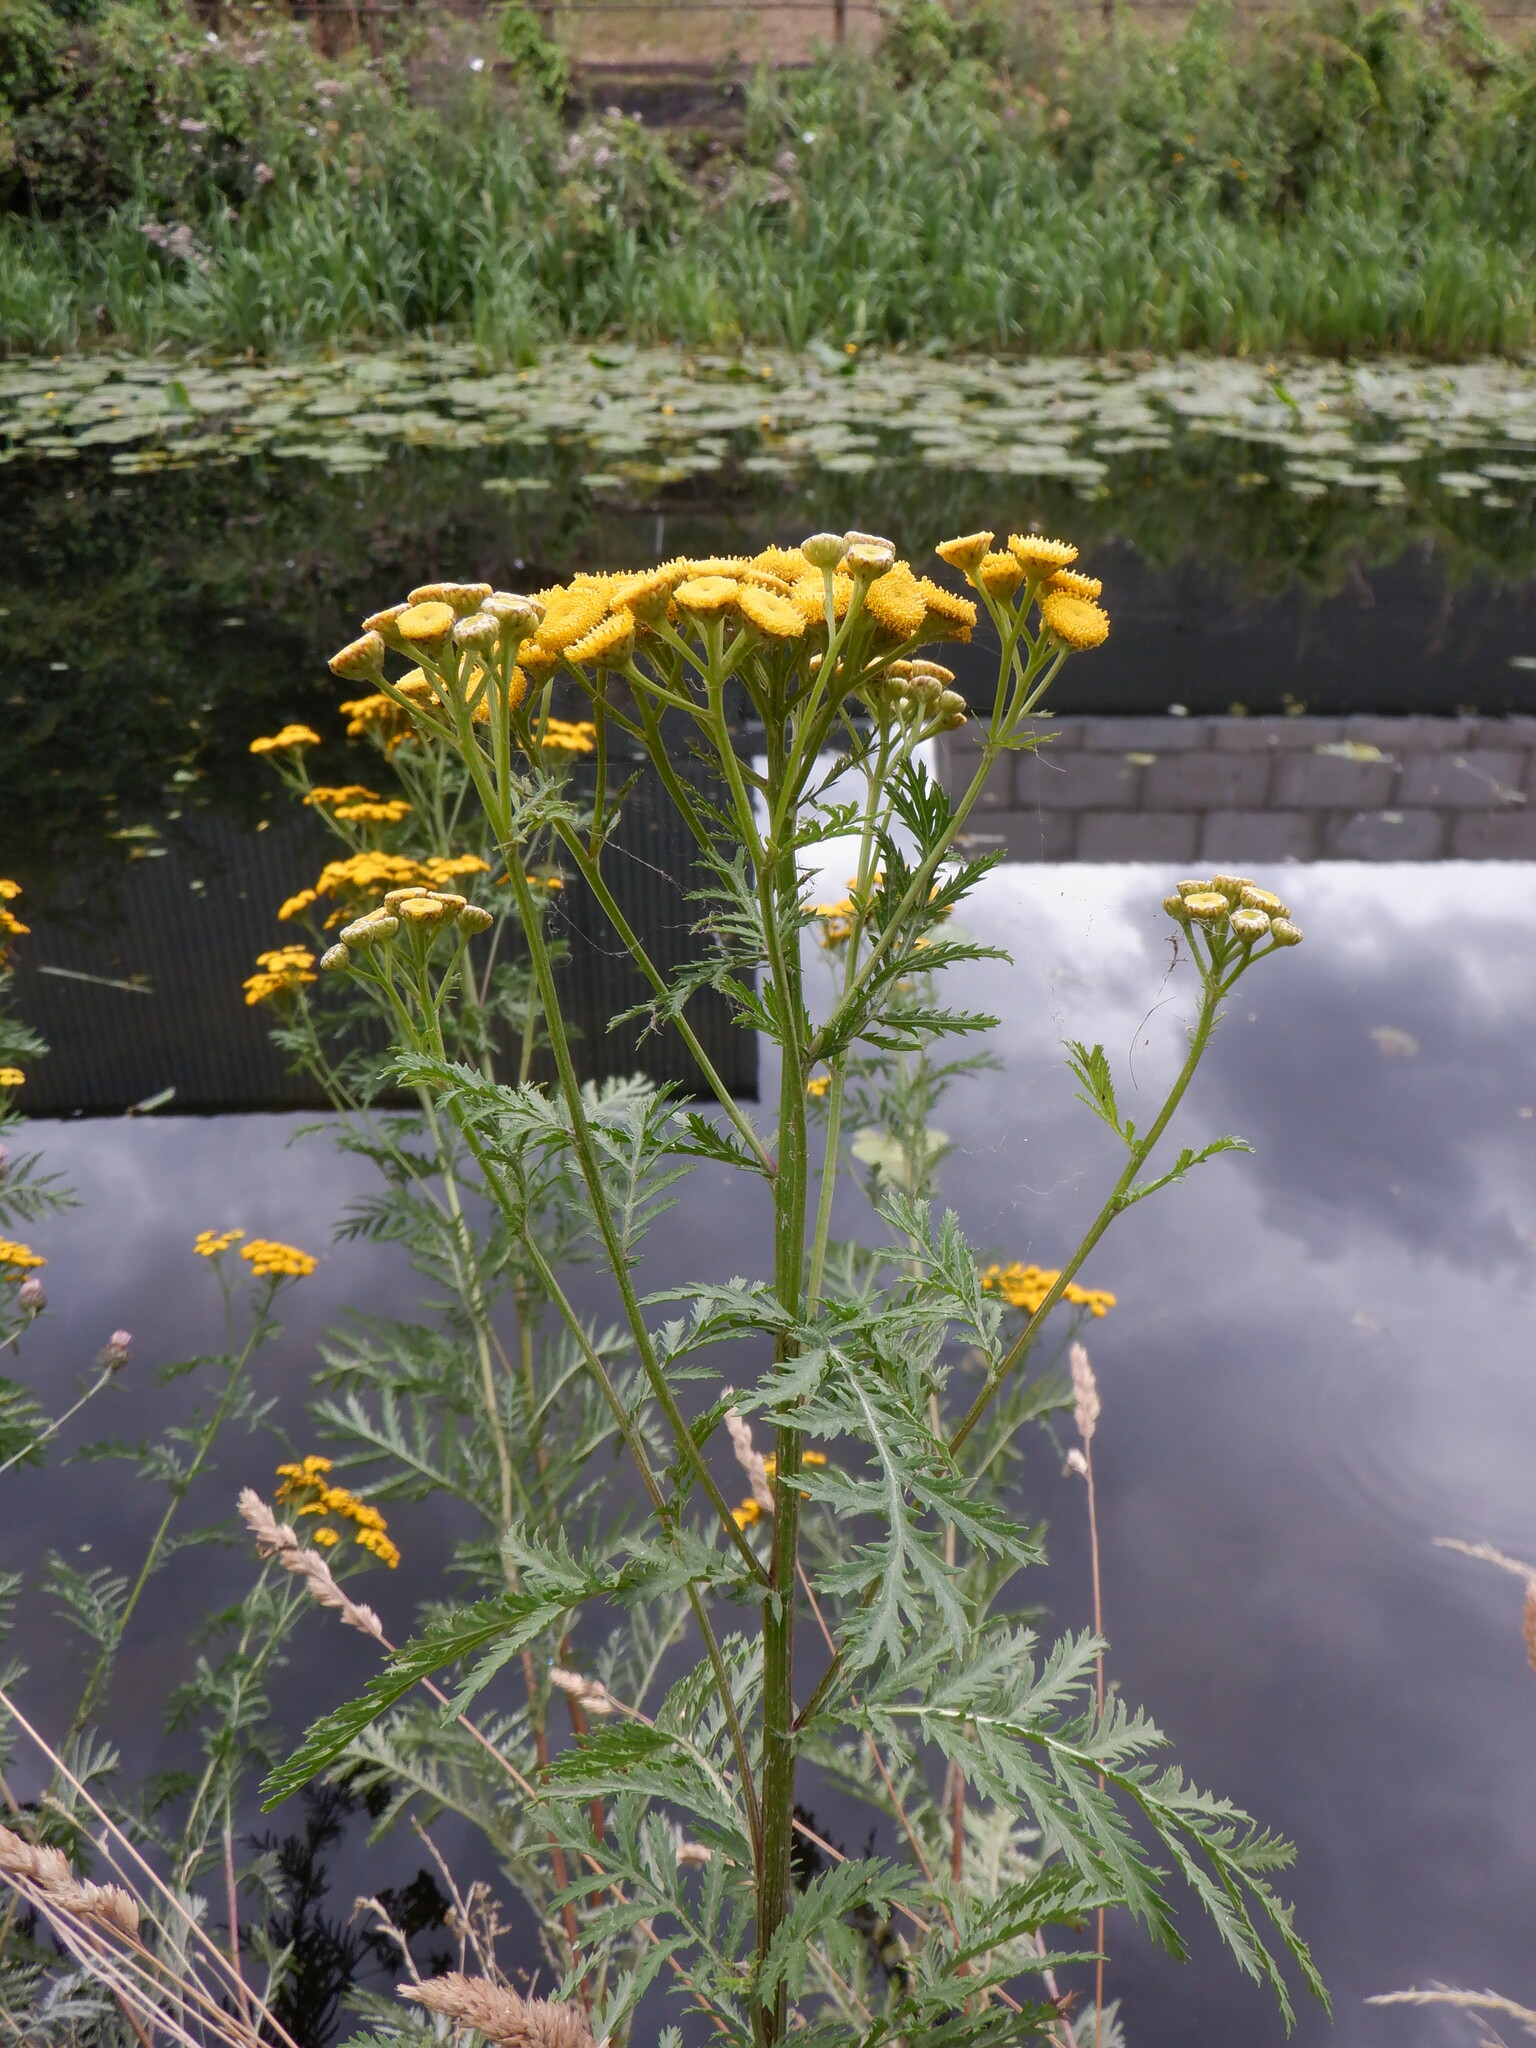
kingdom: Plantae
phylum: Tracheophyta
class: Magnoliopsida
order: Asterales
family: Asteraceae
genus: Tanacetum
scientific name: Tanacetum vulgare
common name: Common tansy
